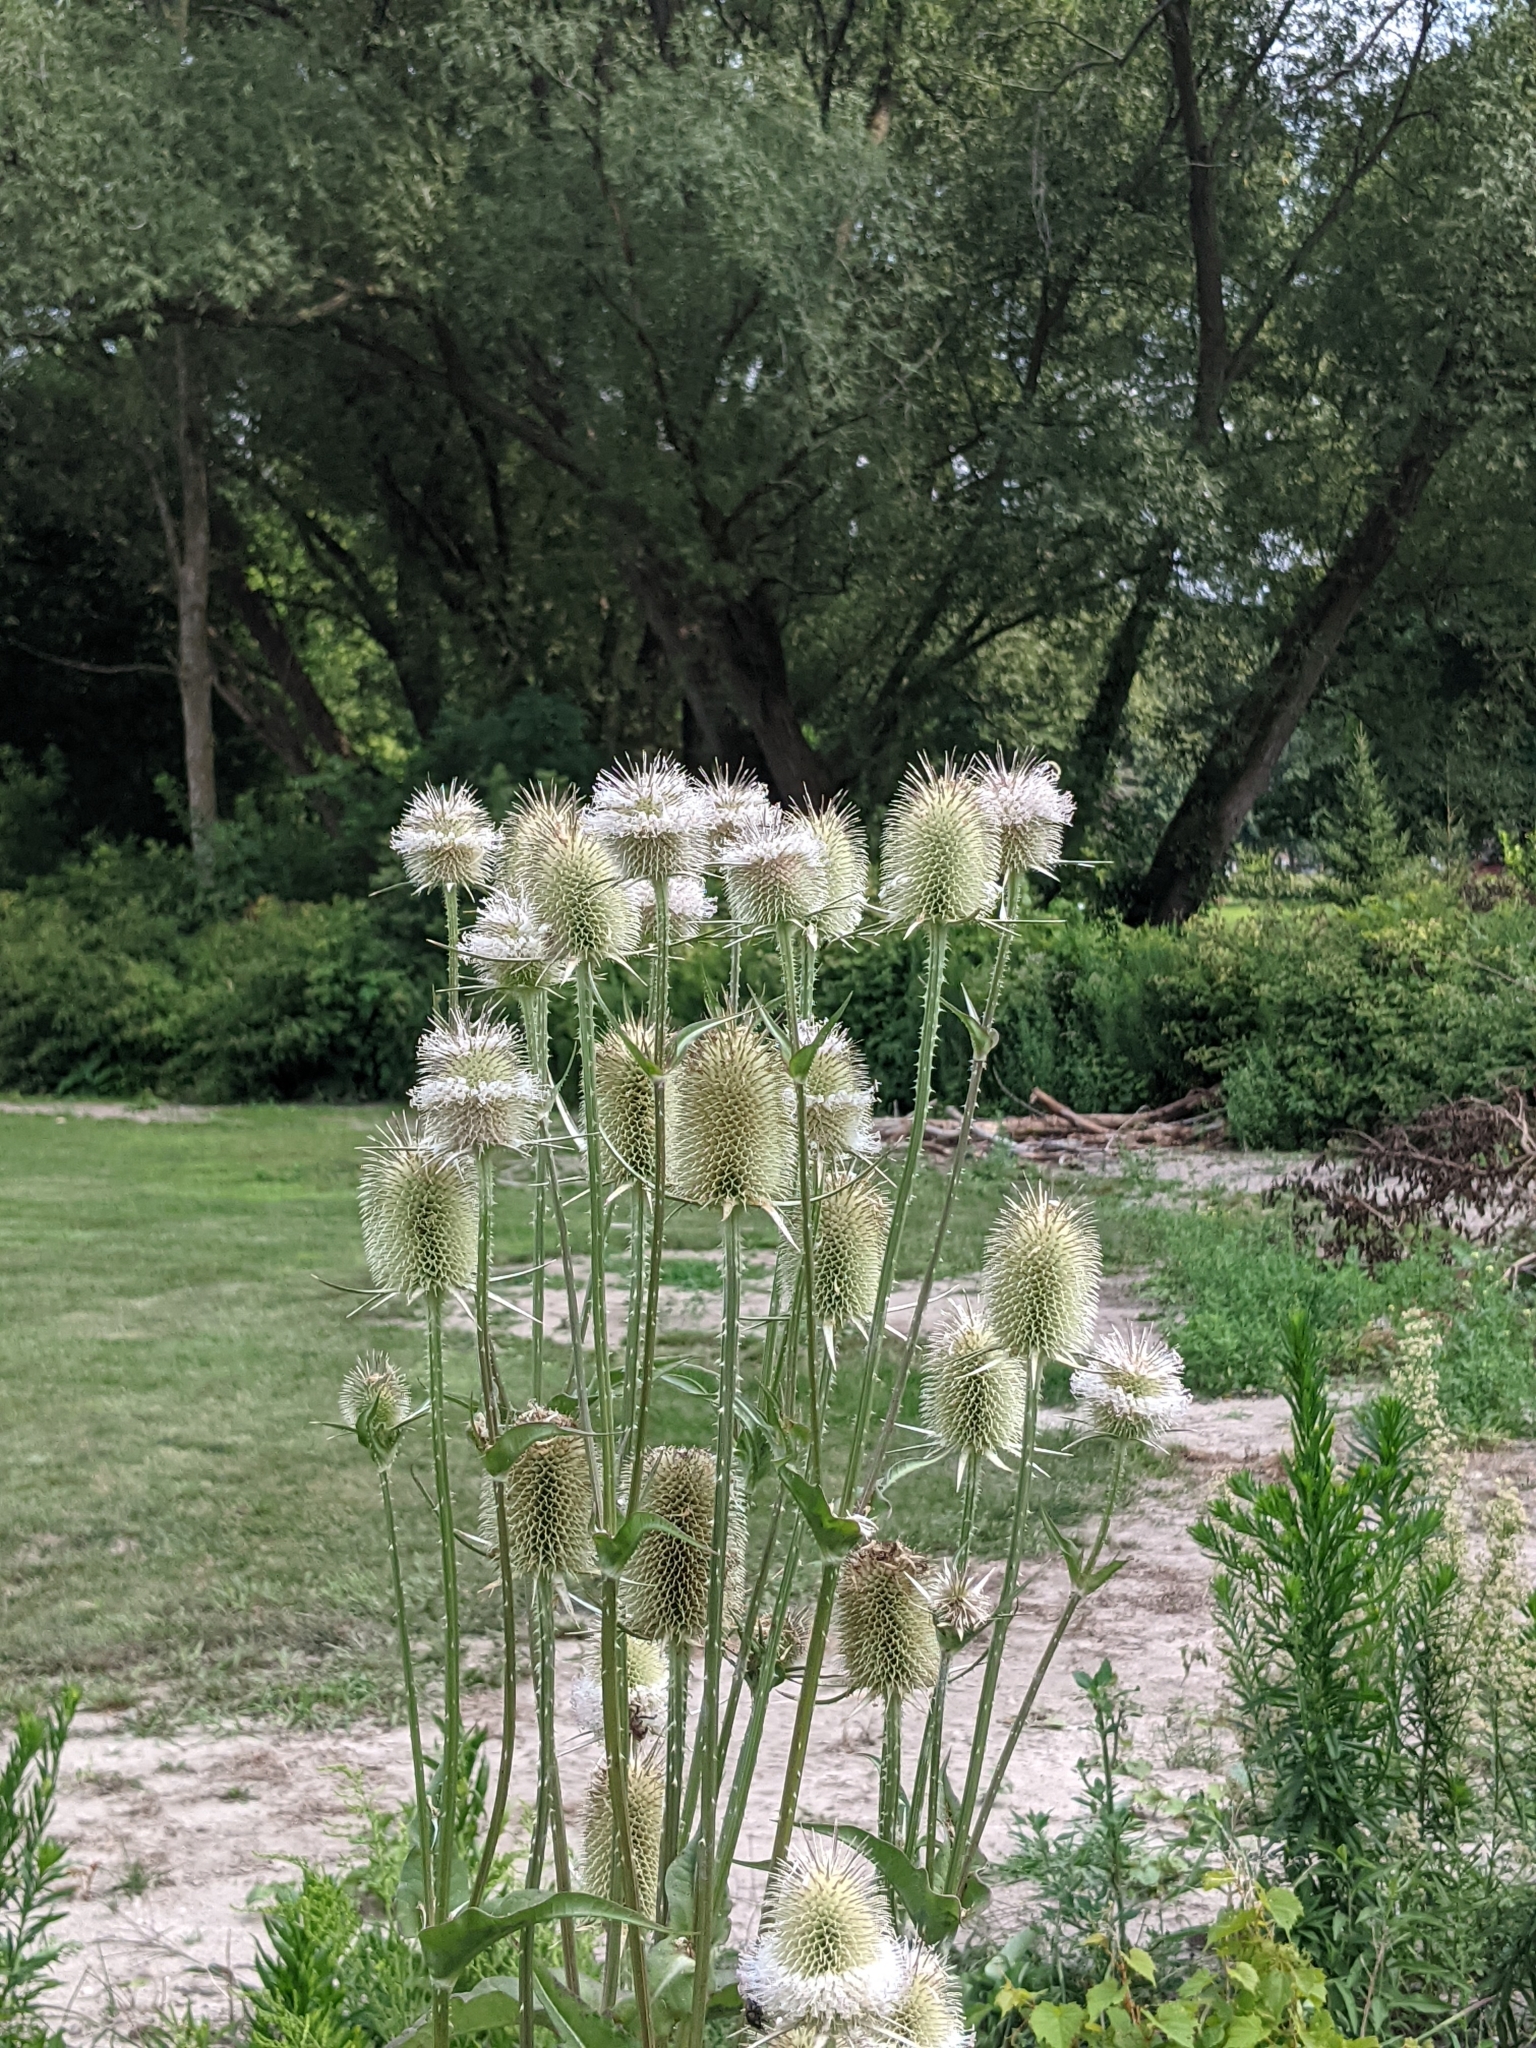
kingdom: Plantae
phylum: Tracheophyta
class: Magnoliopsida
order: Dipsacales
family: Caprifoliaceae
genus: Dipsacus
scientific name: Dipsacus laciniatus
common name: Cut-leaved teasel
